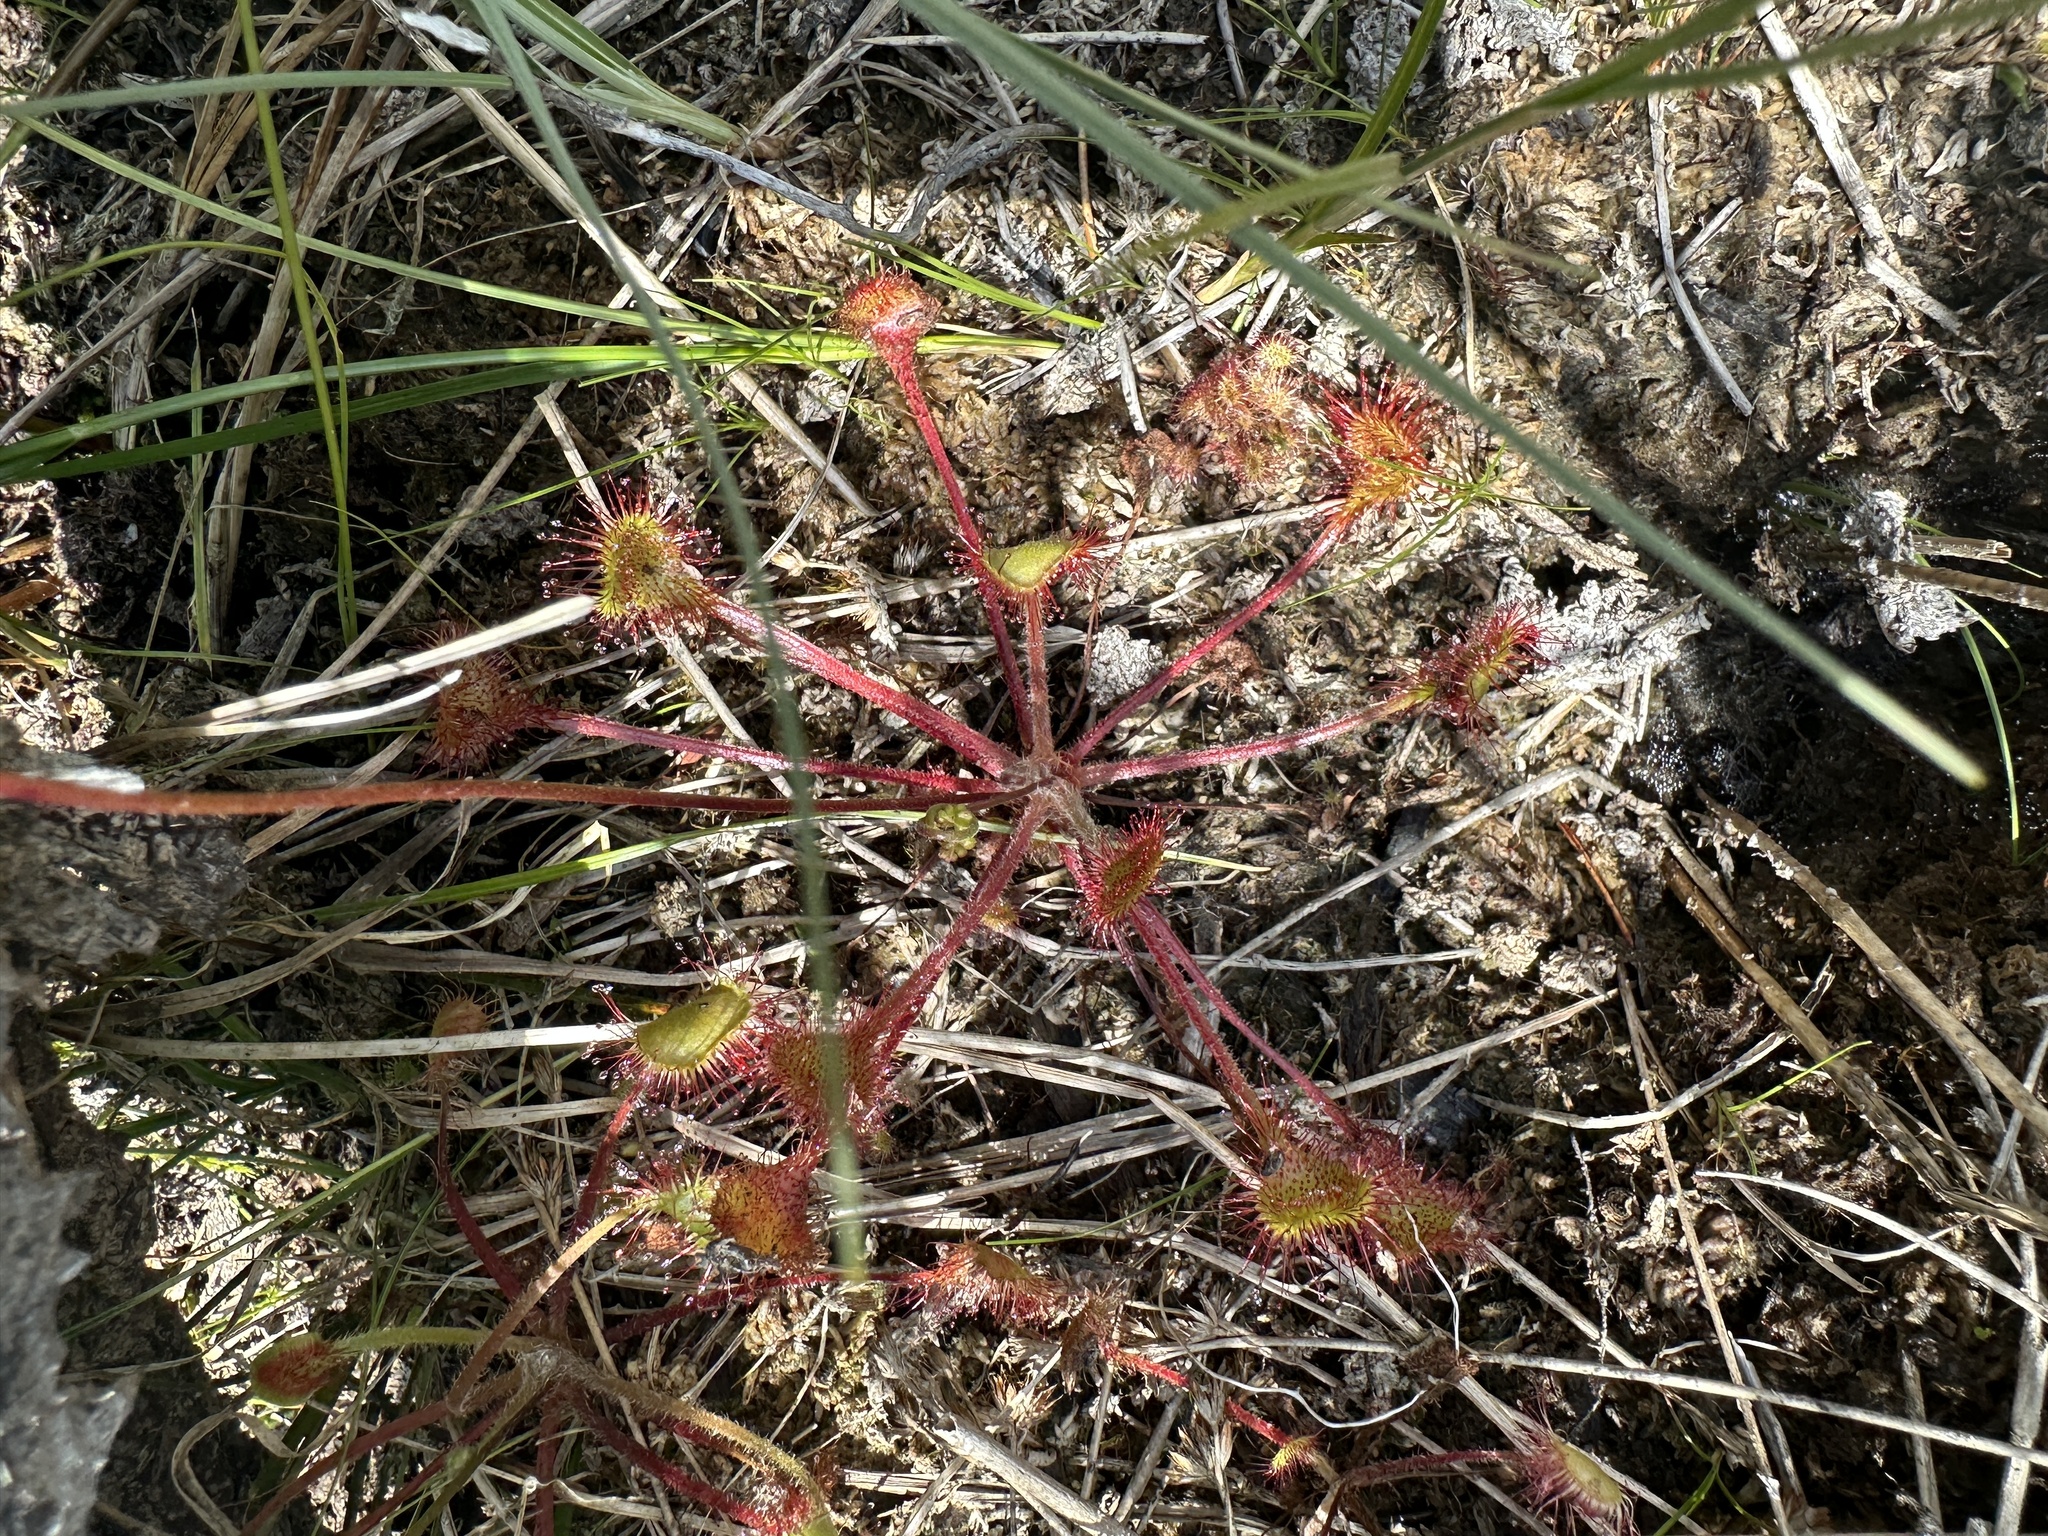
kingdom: Plantae
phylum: Tracheophyta
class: Magnoliopsida
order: Caryophyllales
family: Droseraceae
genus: Drosera
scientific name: Drosera rotundifolia
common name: Round-leaved sundew
